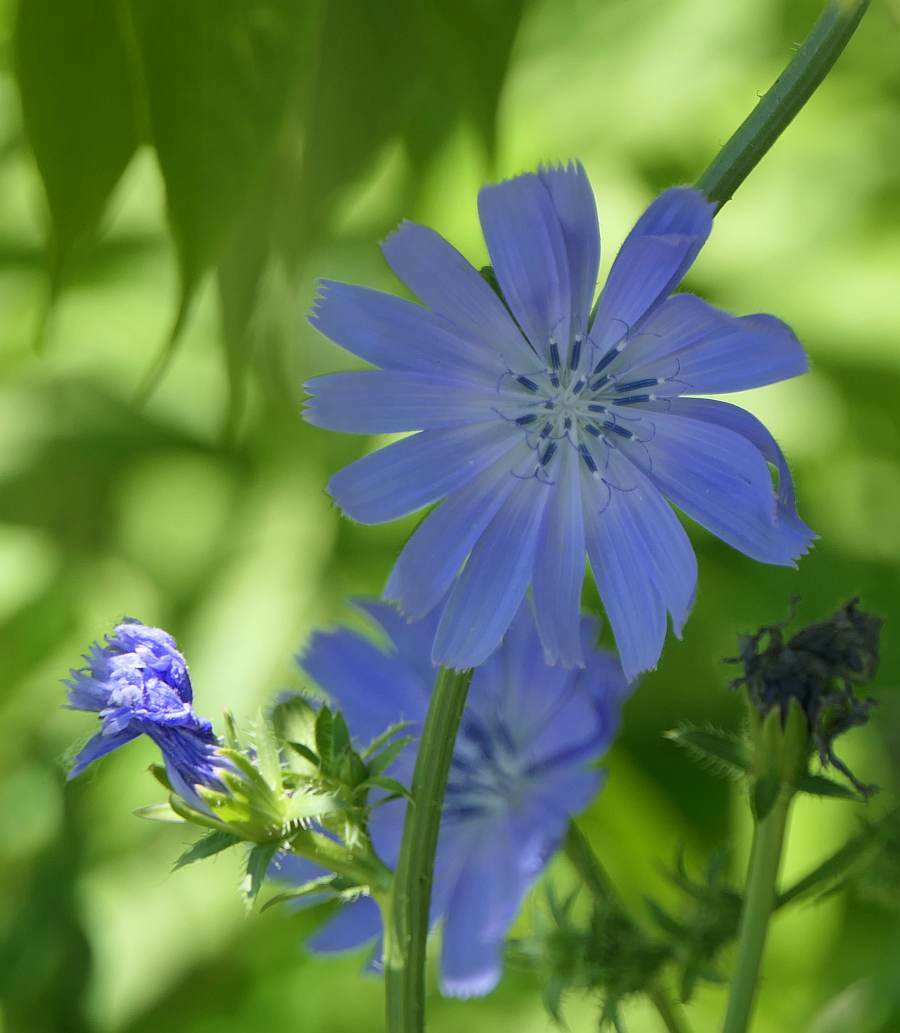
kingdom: Plantae
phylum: Tracheophyta
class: Magnoliopsida
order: Asterales
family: Asteraceae
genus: Cichorium
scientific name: Cichorium intybus
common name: Chicory
